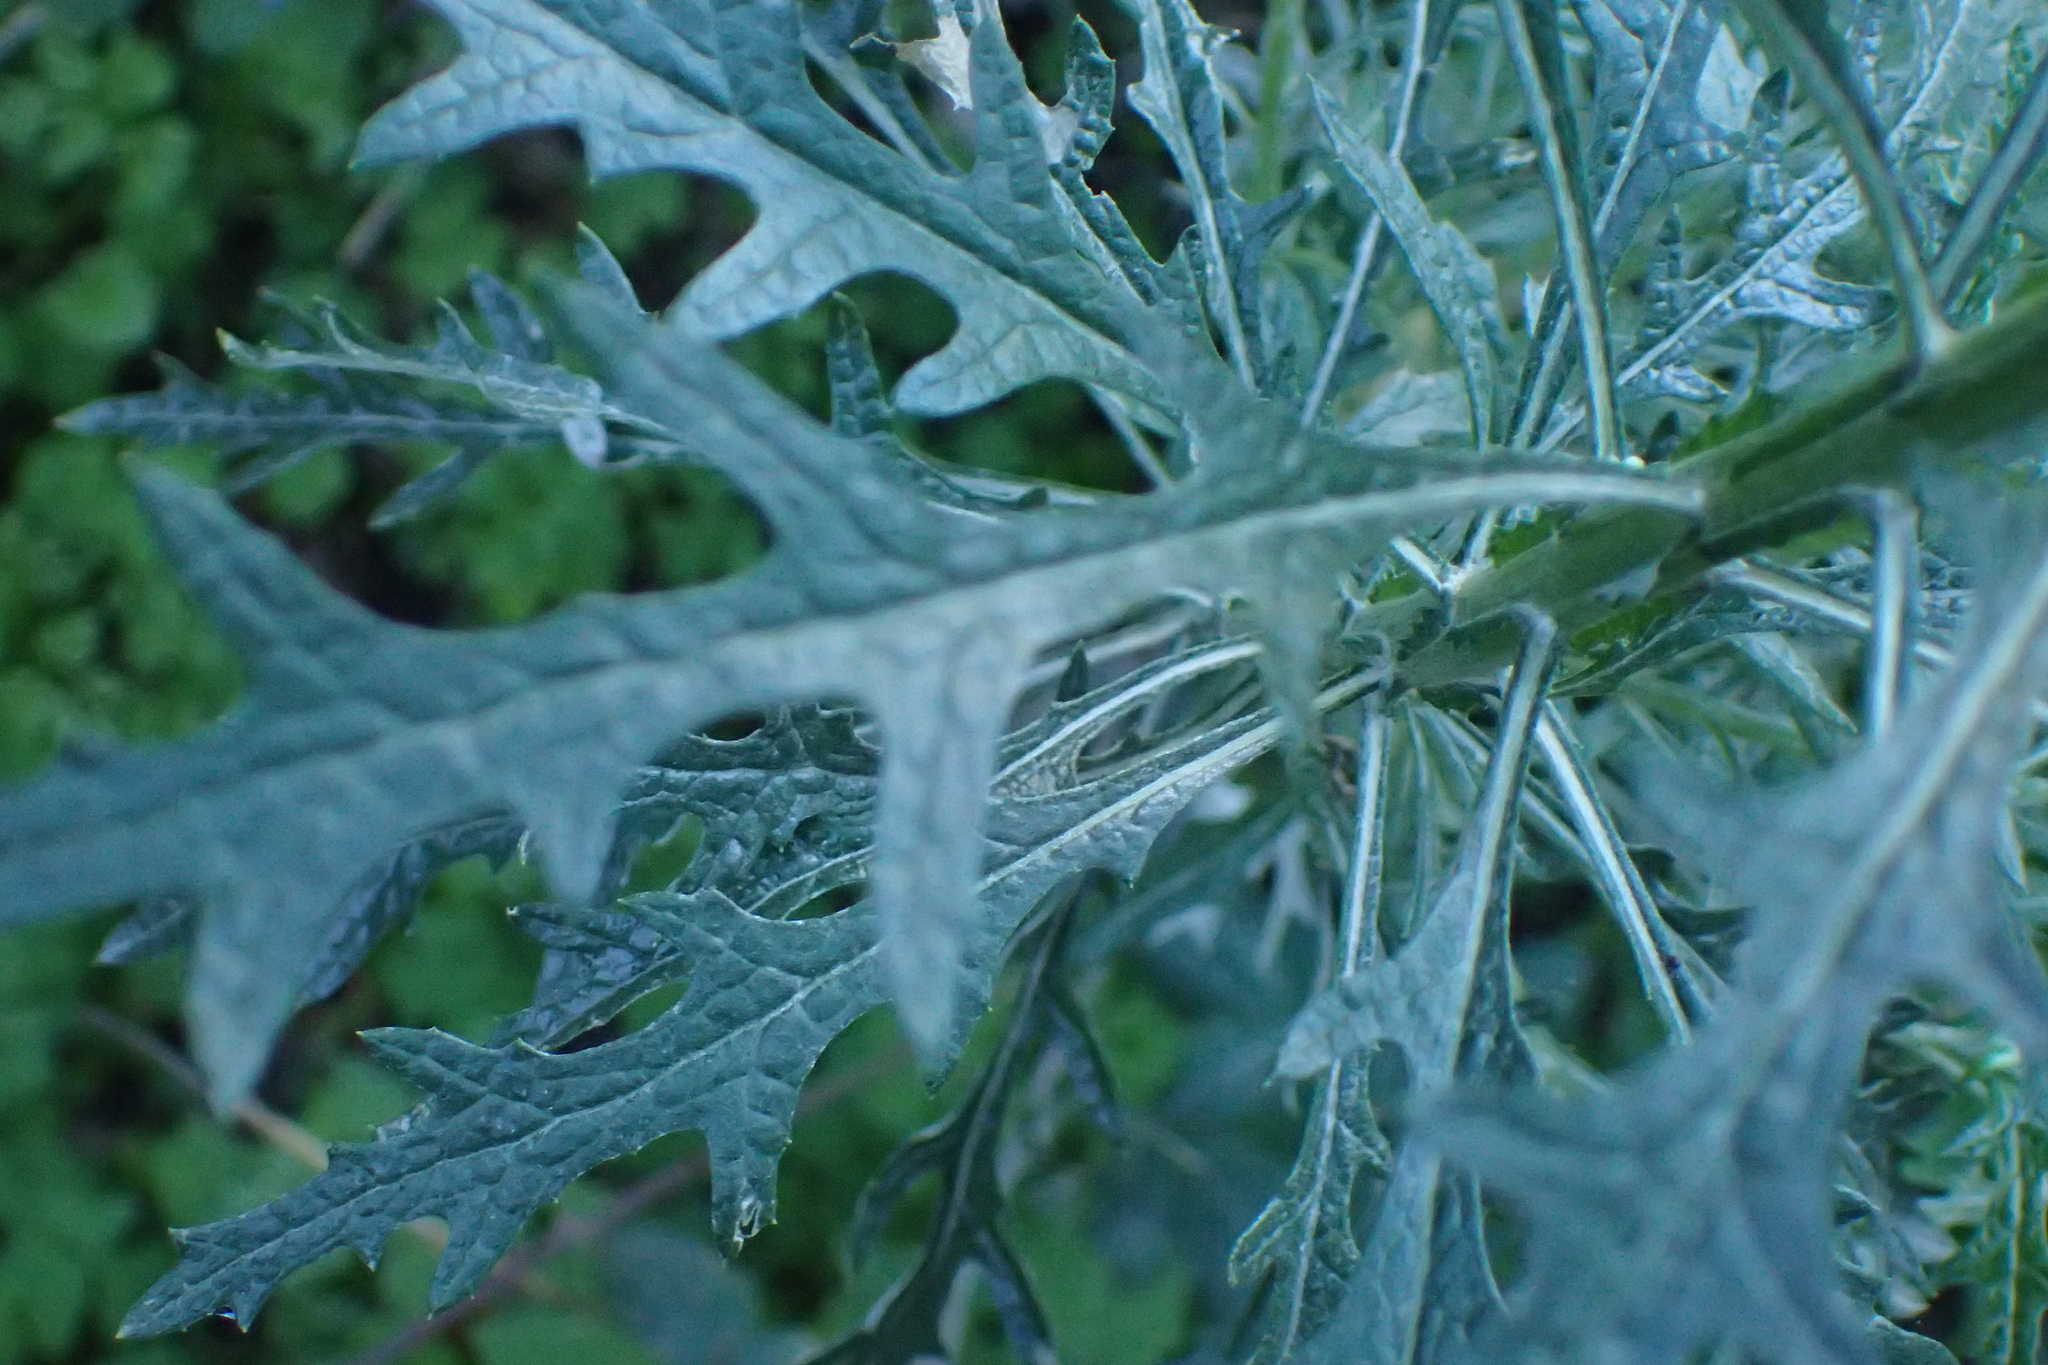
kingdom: Plantae
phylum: Tracheophyta
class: Magnoliopsida
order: Asterales
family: Asteraceae
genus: Senecio
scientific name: Senecio pterophorus
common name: Shoddy ragwort
